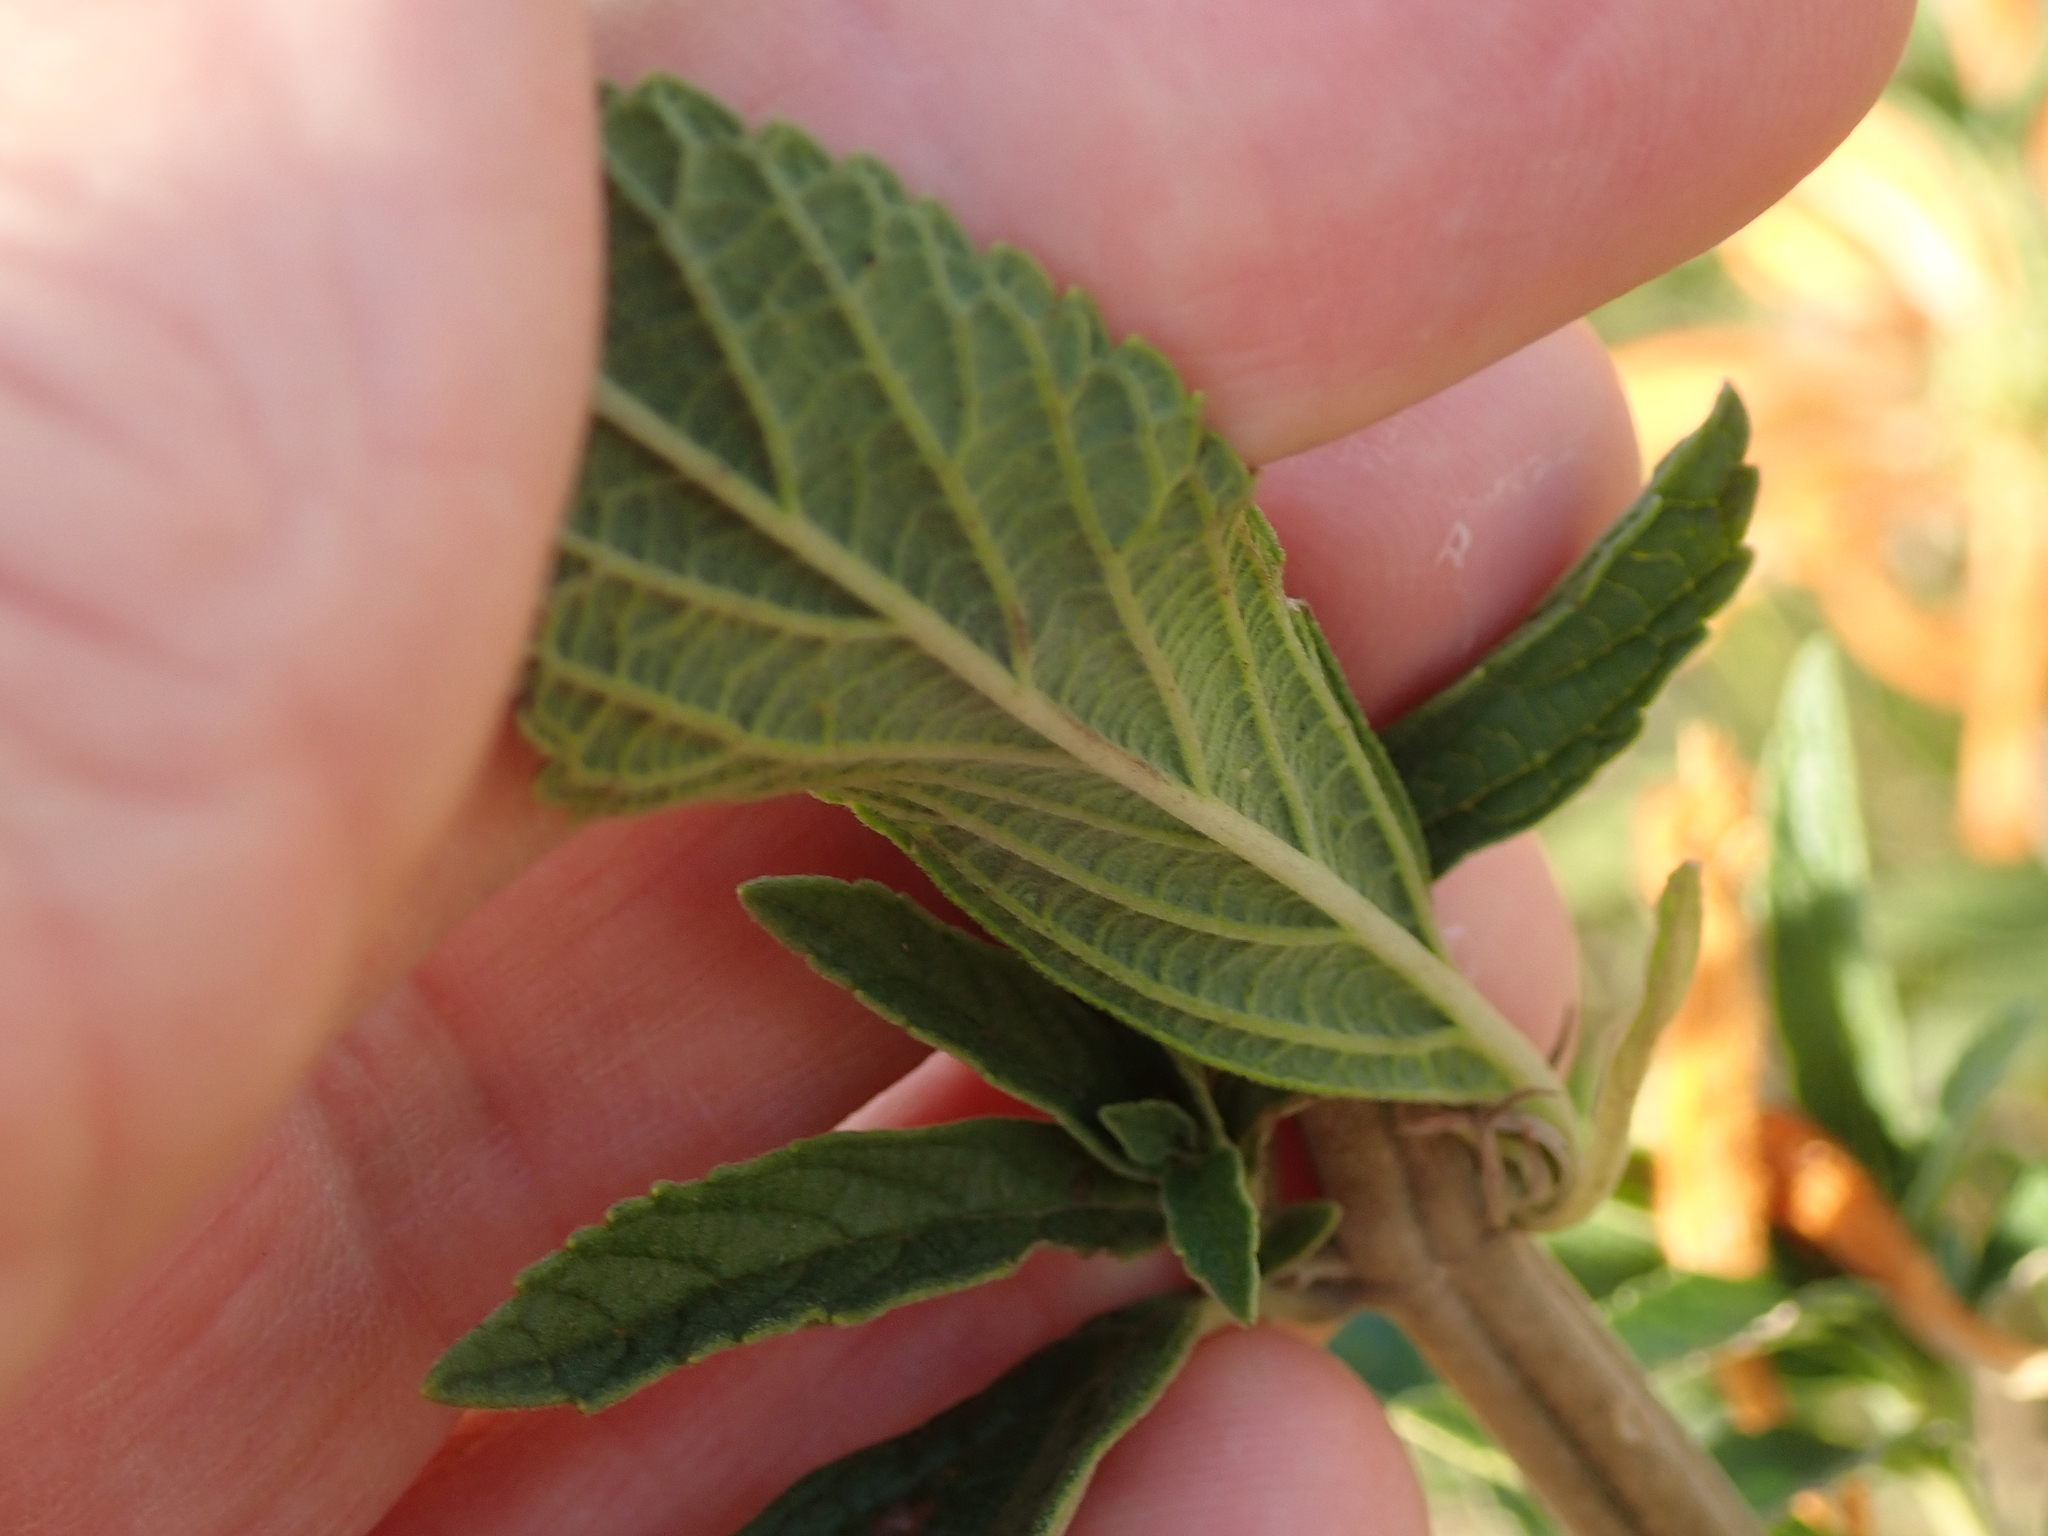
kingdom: Plantae
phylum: Tracheophyta
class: Magnoliopsida
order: Lamiales
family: Lamiaceae
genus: Leonotis
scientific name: Leonotis leonurus
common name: Lion's ear
